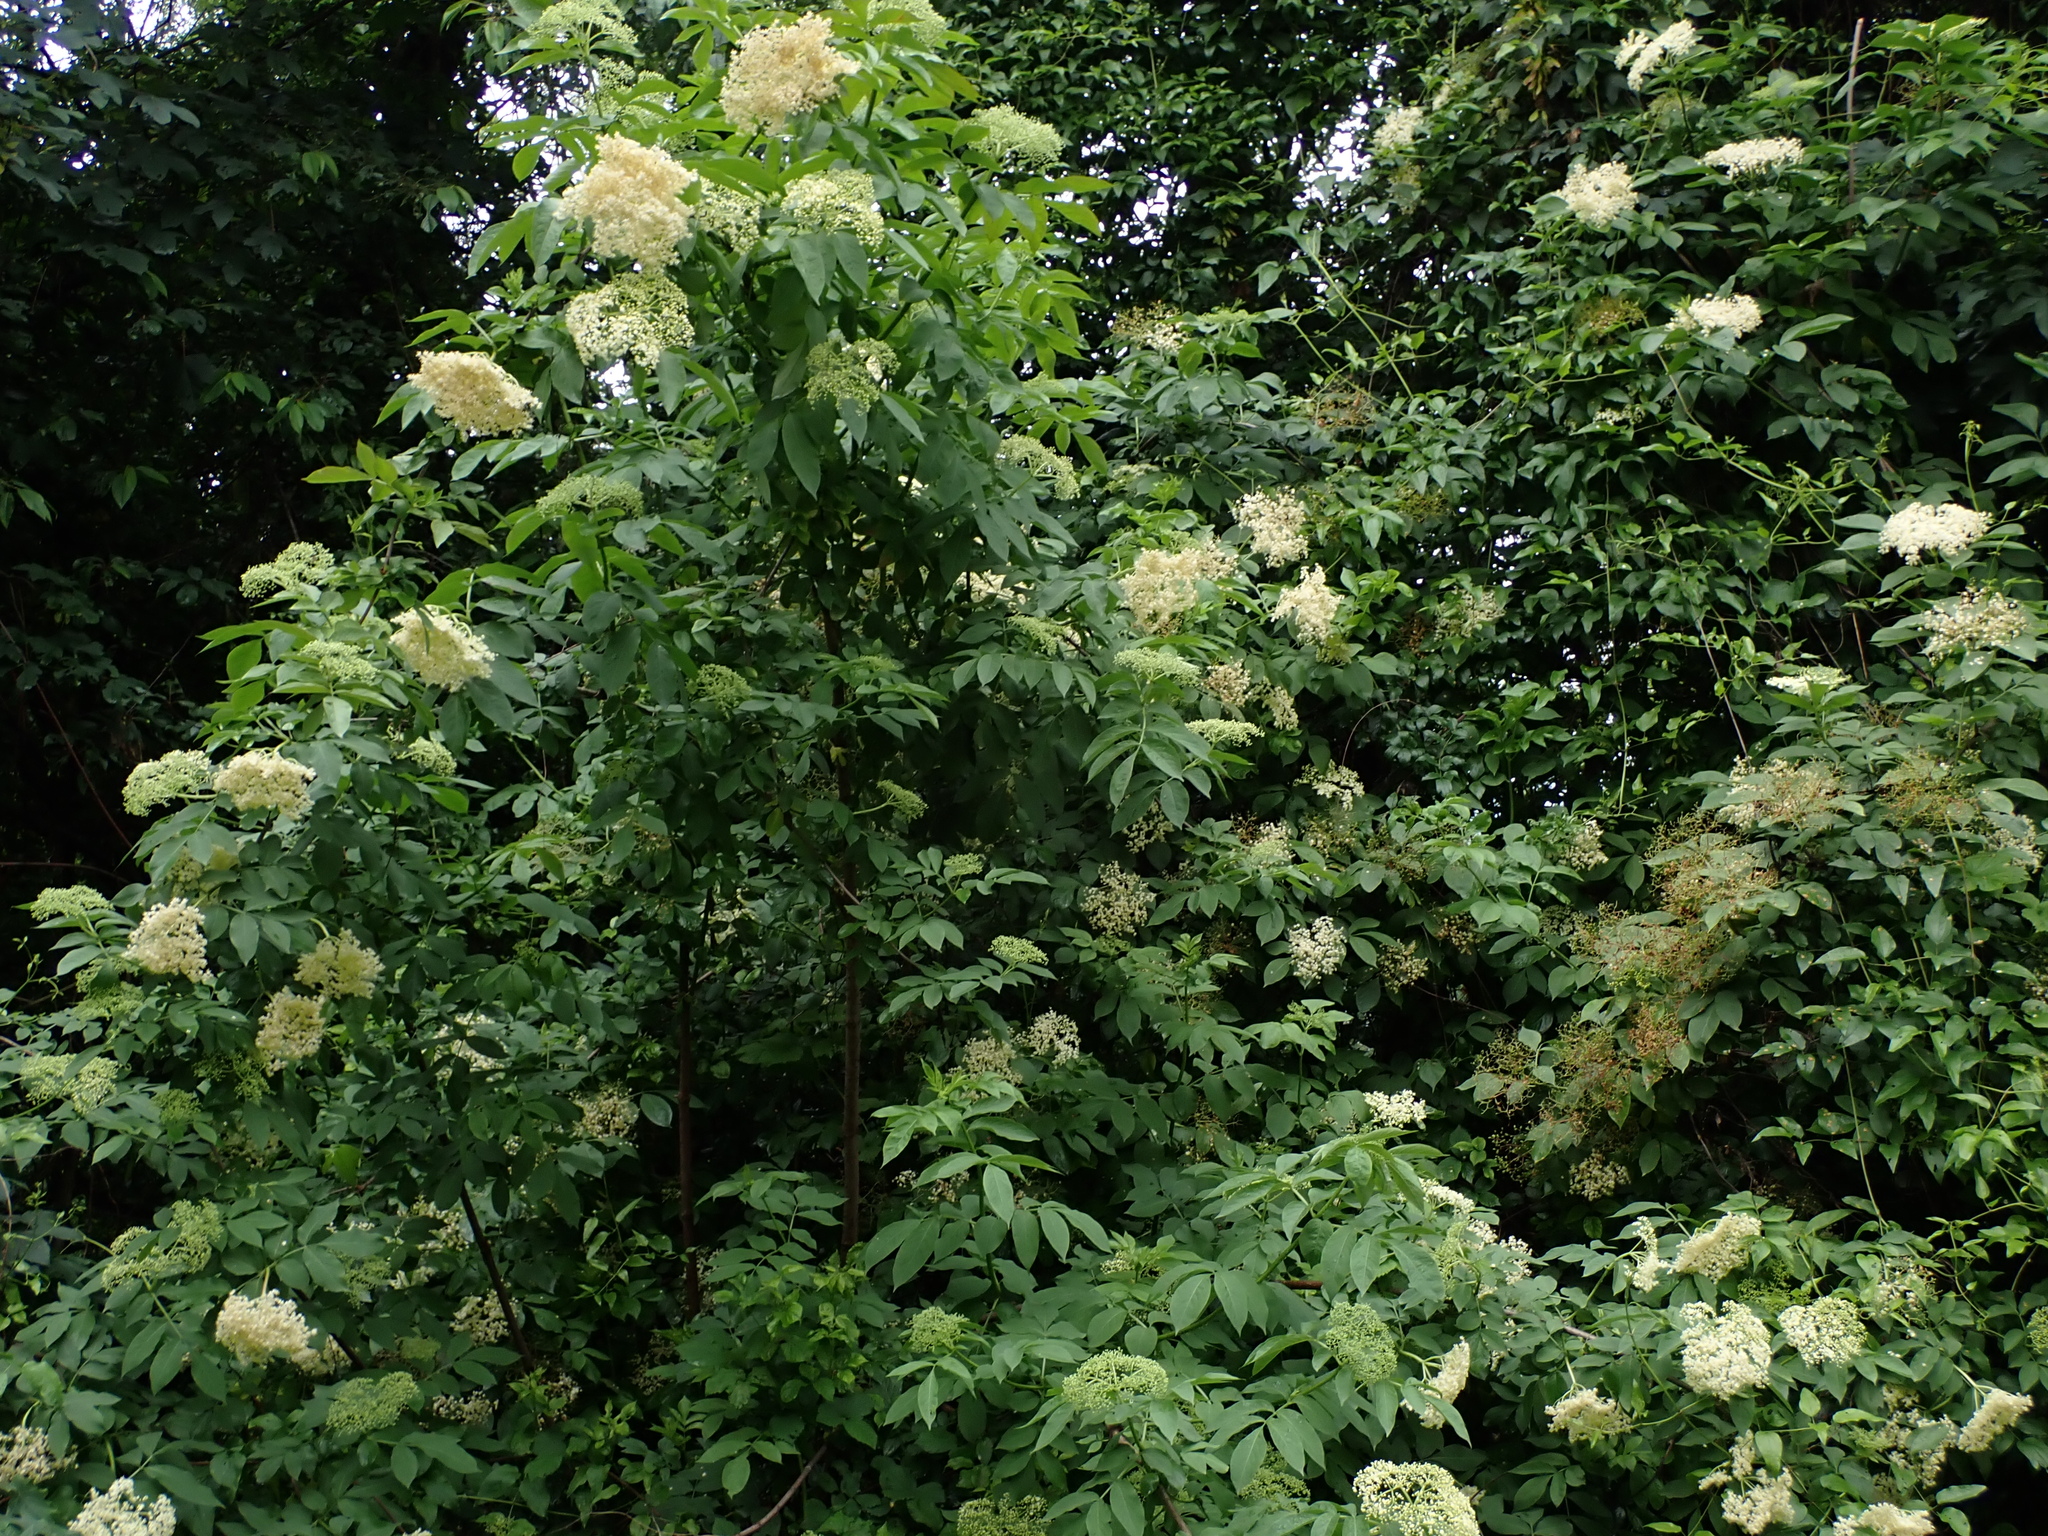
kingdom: Plantae
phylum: Tracheophyta
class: Magnoliopsida
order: Dipsacales
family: Viburnaceae
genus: Sambucus
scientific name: Sambucus nigra
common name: Elder
